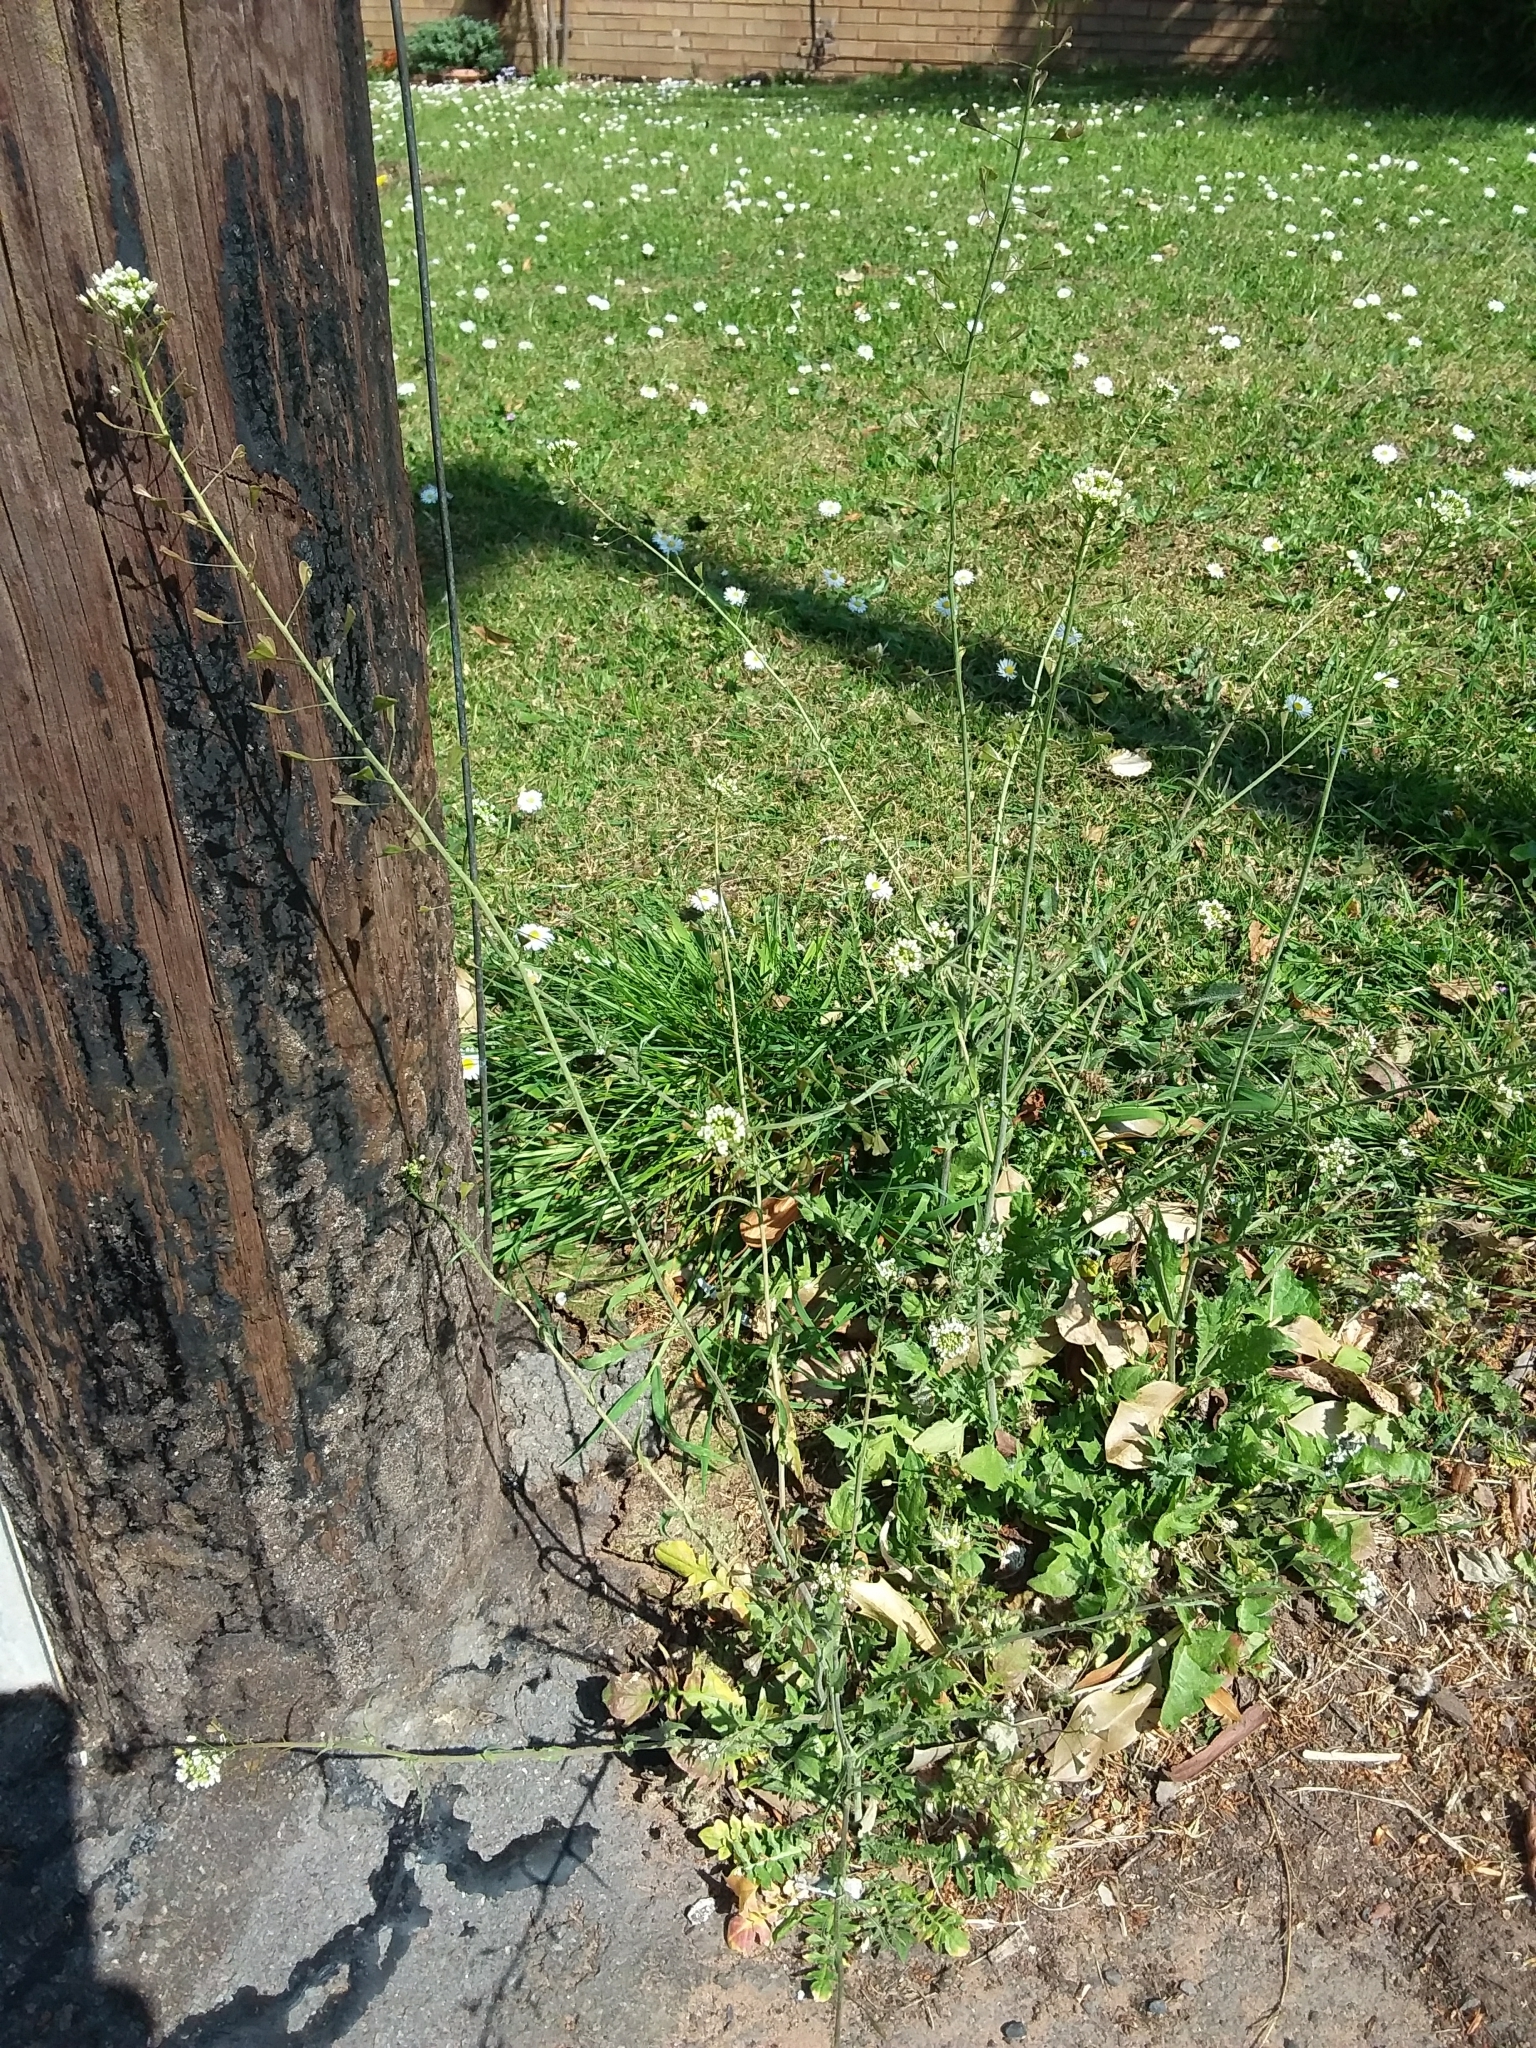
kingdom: Plantae
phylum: Tracheophyta
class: Magnoliopsida
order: Brassicales
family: Brassicaceae
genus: Capsella
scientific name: Capsella bursa-pastoris
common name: Shepherd's purse
